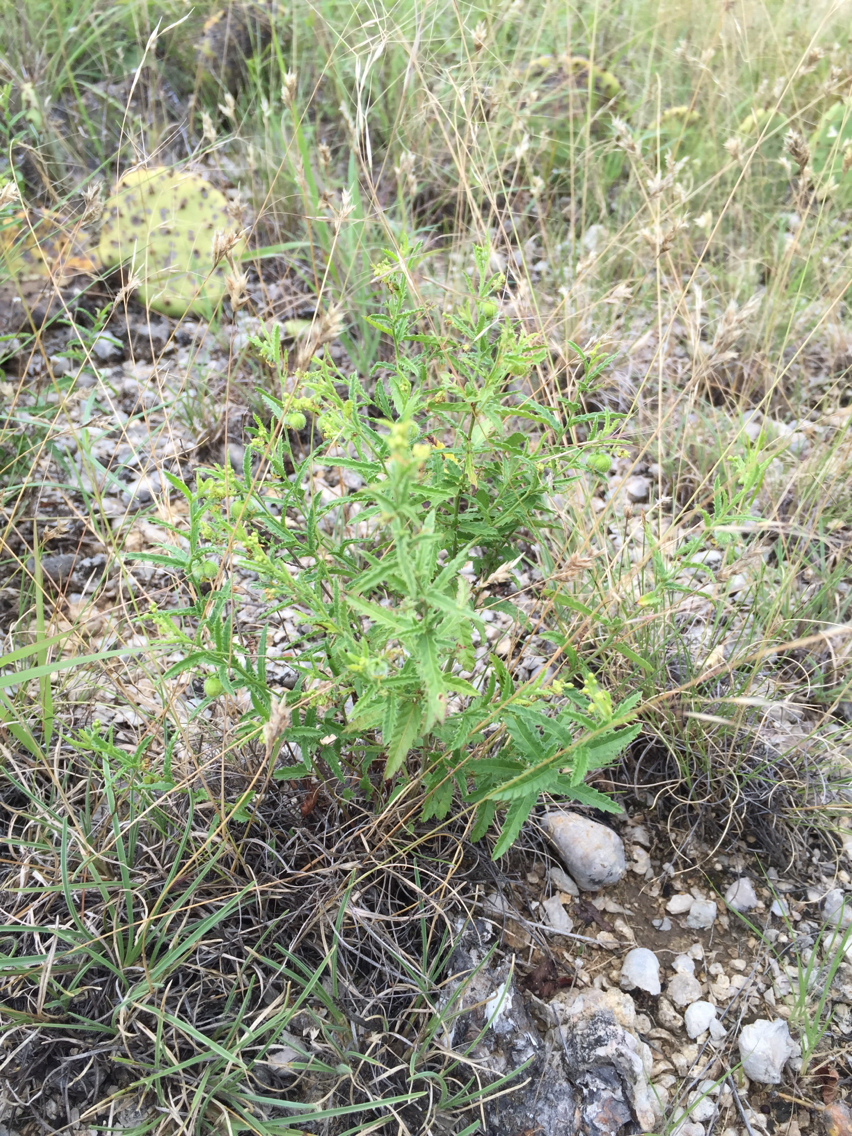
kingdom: Plantae
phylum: Tracheophyta
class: Magnoliopsida
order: Malpighiales
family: Euphorbiaceae
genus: Tragia
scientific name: Tragia ramosa
